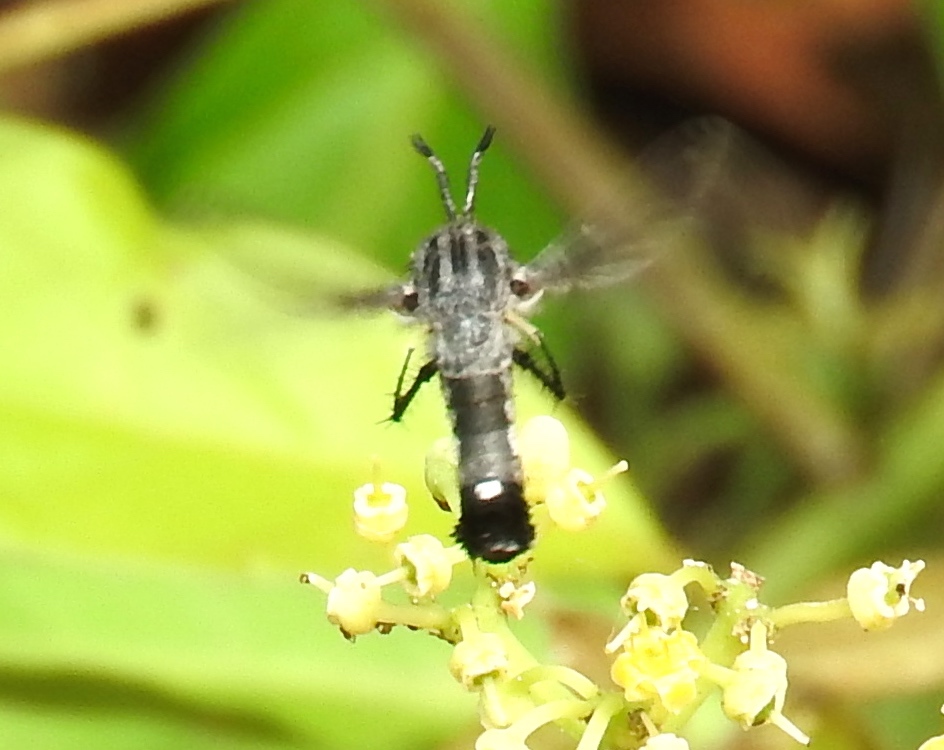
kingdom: Animalia
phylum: Arthropoda
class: Insecta
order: Diptera
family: Bombyliidae
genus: Lepidophora
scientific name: Lepidophora vetusta
